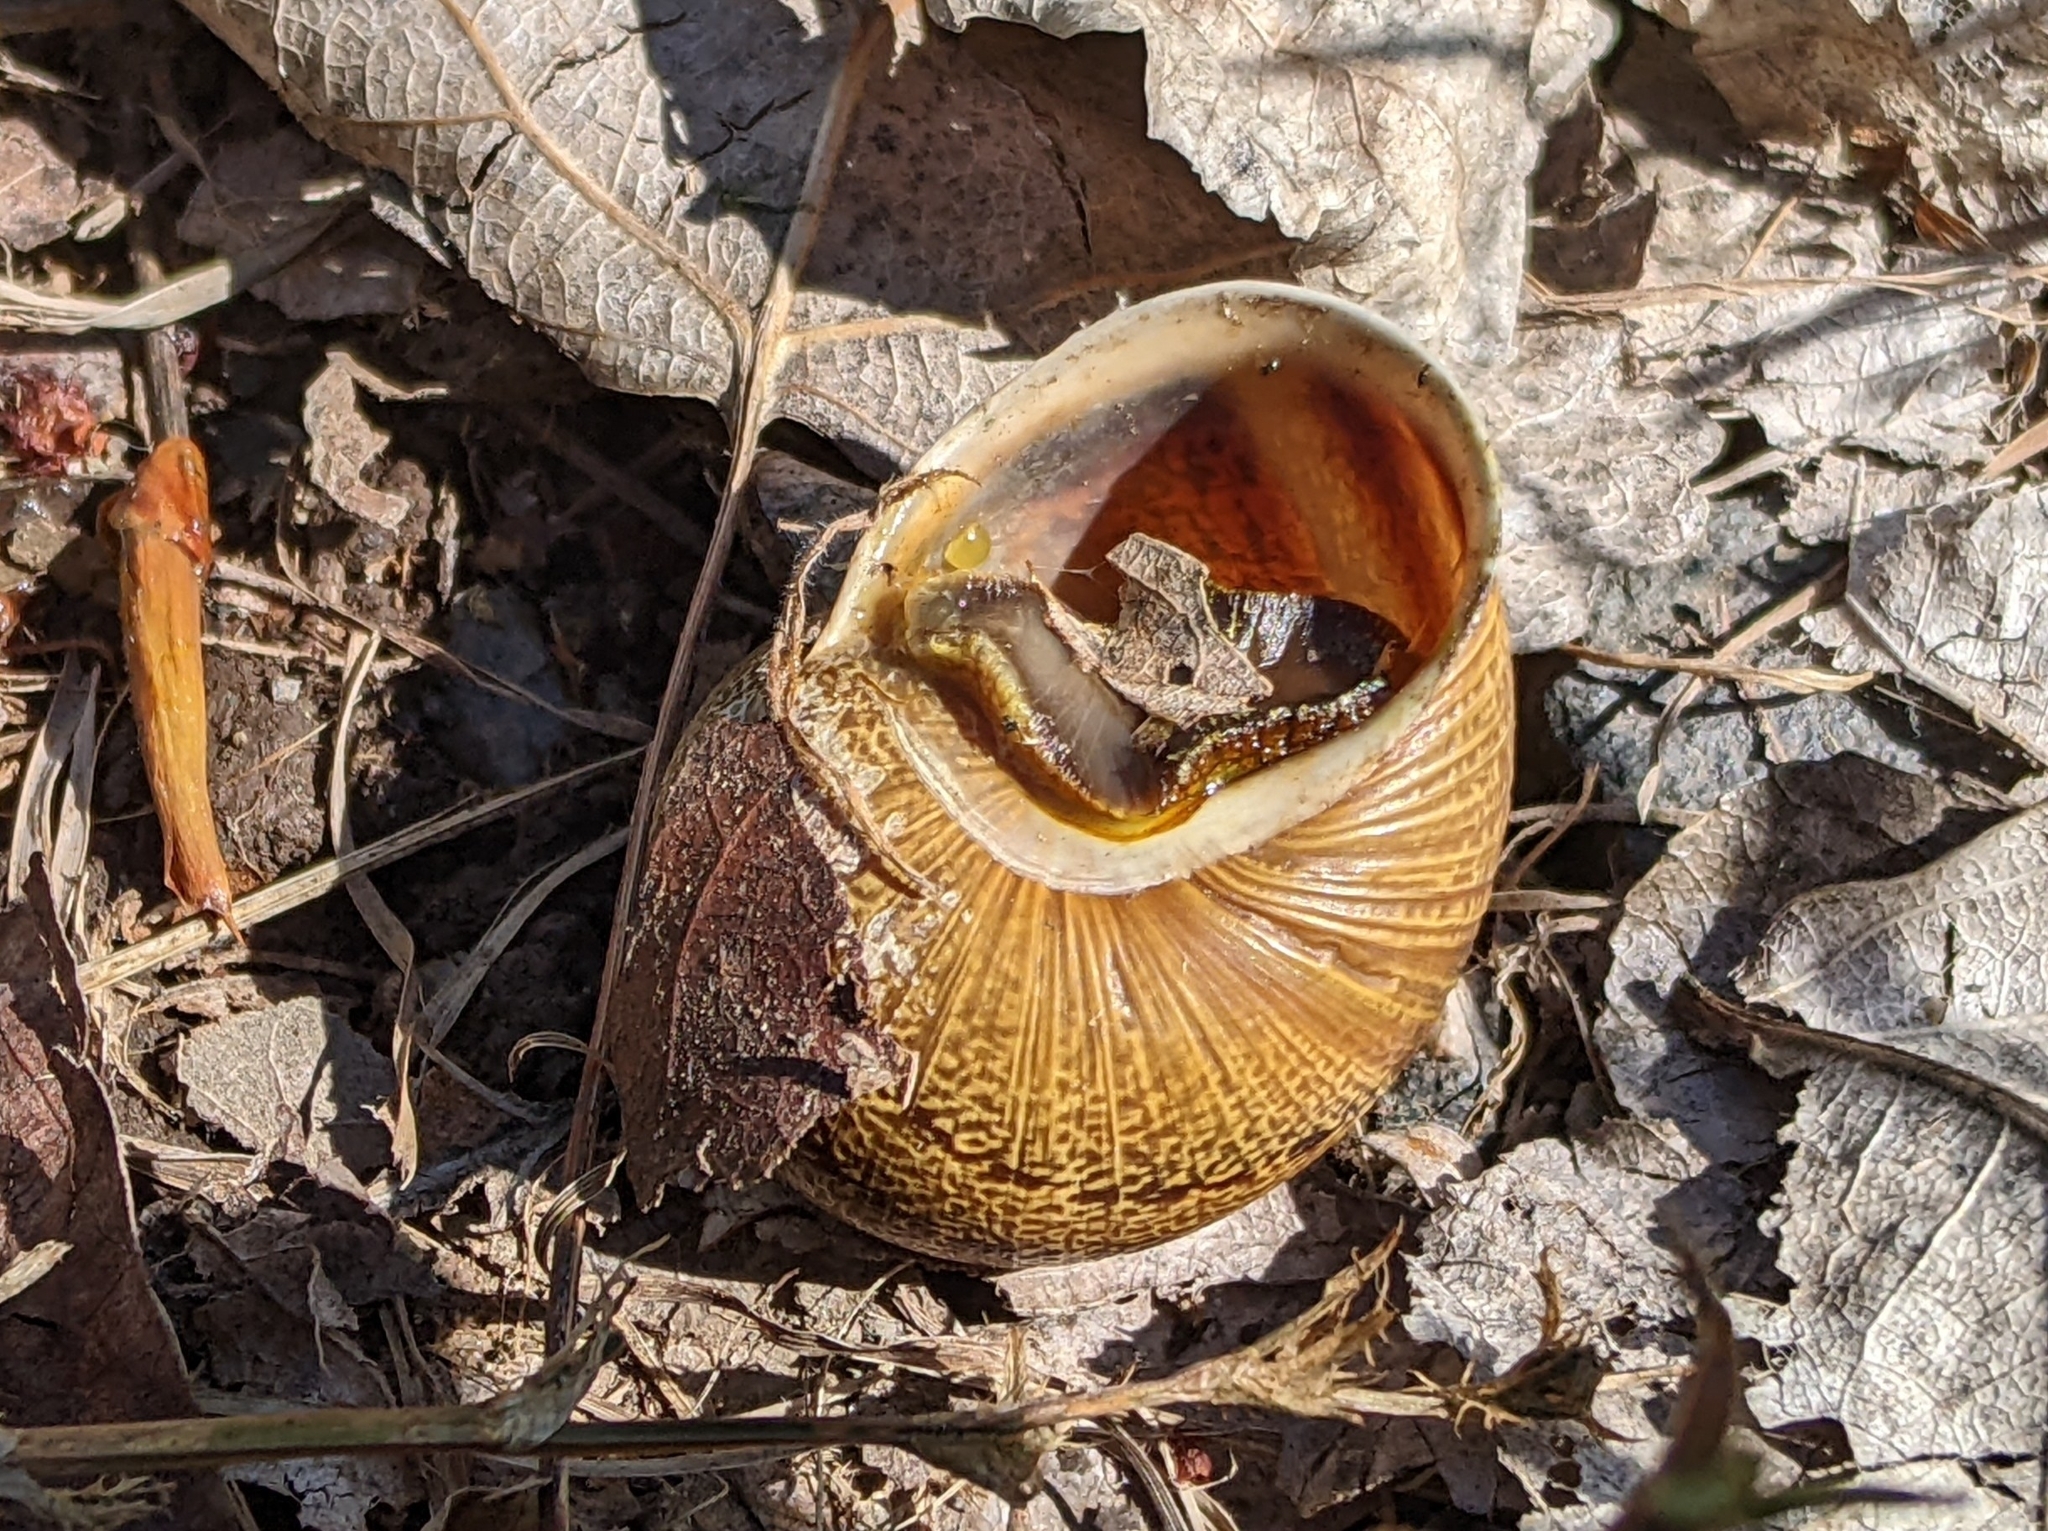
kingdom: Animalia
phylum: Mollusca
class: Gastropoda
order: Stylommatophora
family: Helicidae
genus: Cornu
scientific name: Cornu aspersum
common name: Brown garden snail
